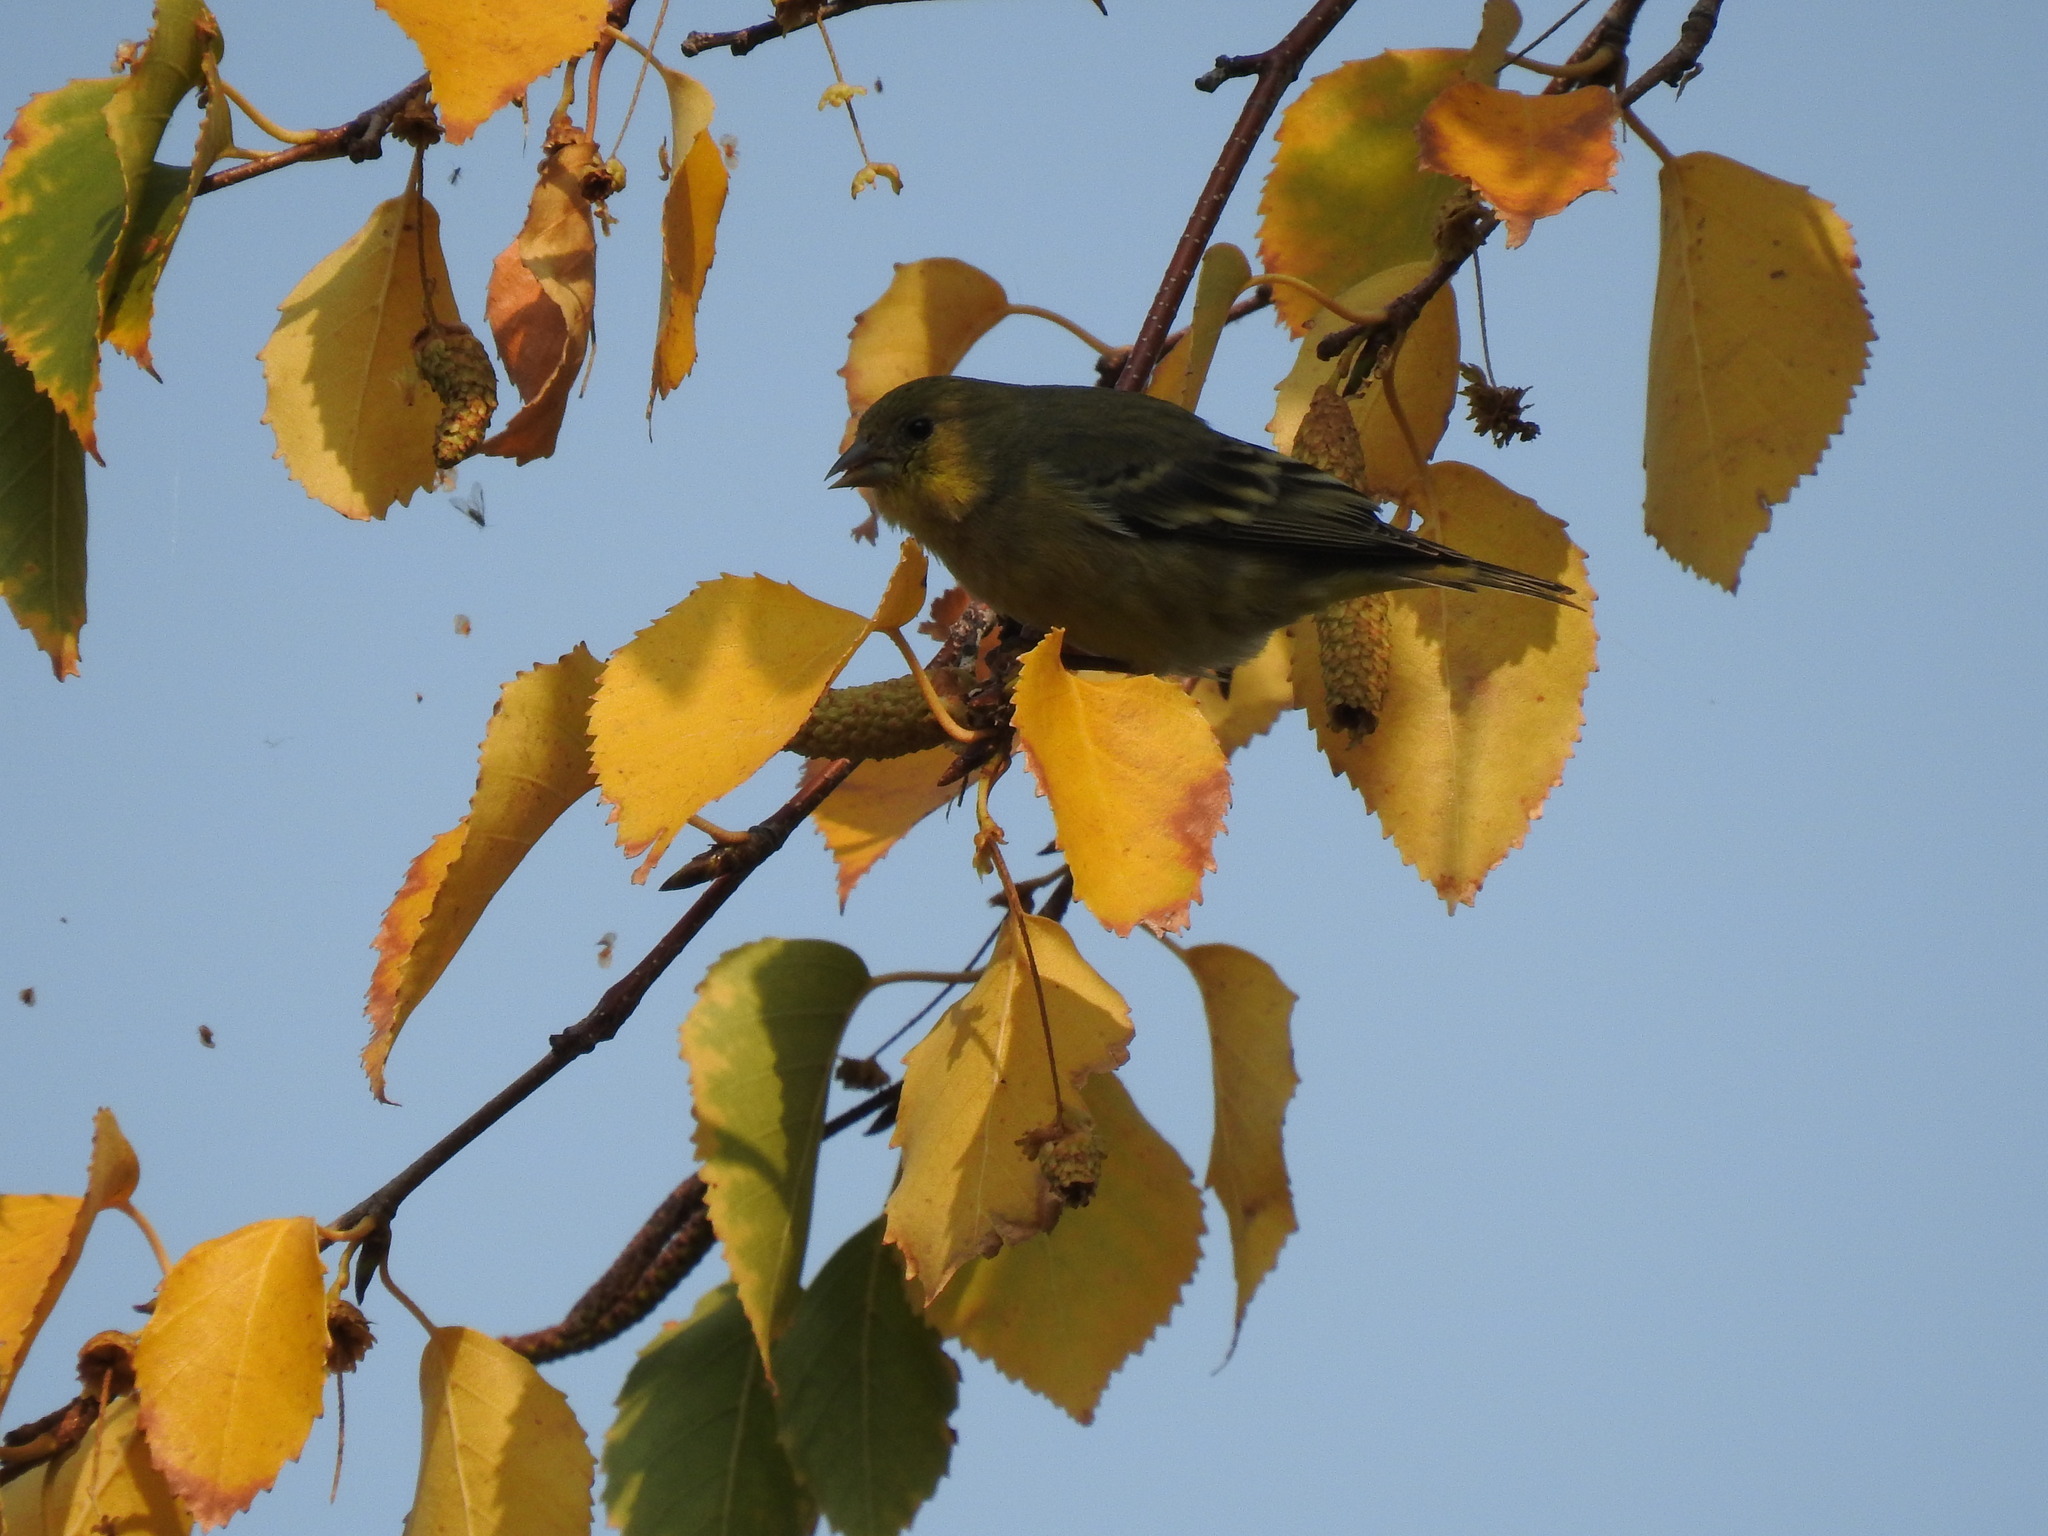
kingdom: Animalia
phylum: Chordata
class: Aves
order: Passeriformes
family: Fringillidae
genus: Spinus
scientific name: Spinus psaltria
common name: Lesser goldfinch
